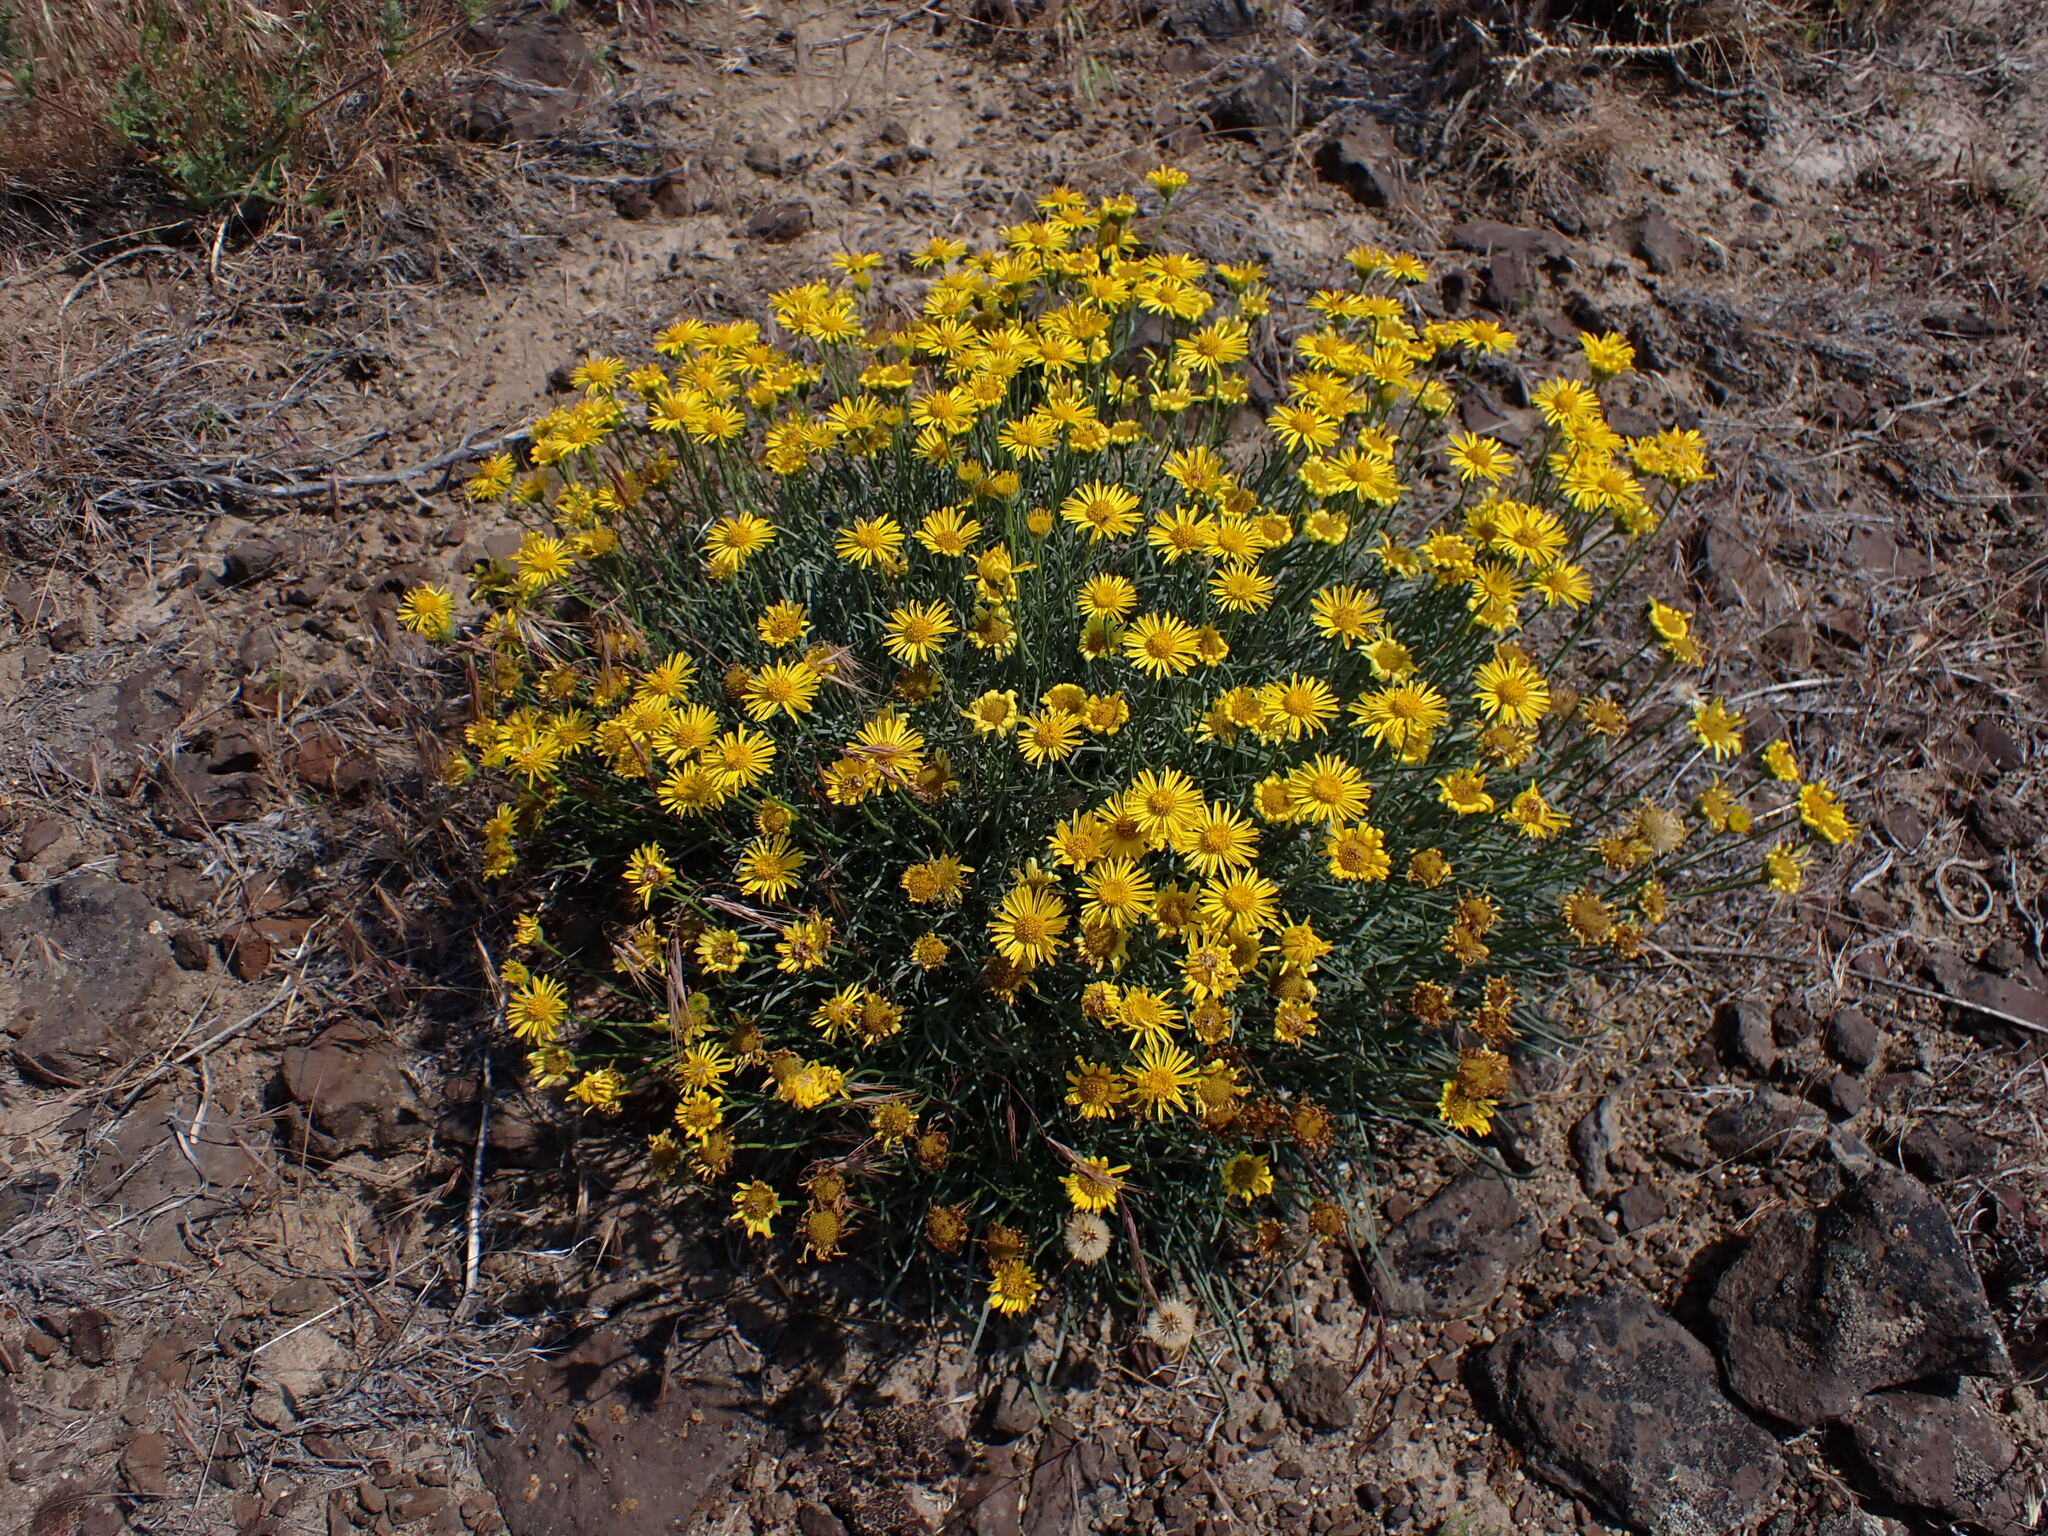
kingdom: Plantae
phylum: Tracheophyta
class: Magnoliopsida
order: Asterales
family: Asteraceae
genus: Erigeron
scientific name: Erigeron linearis
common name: Desert yellow fleabane
